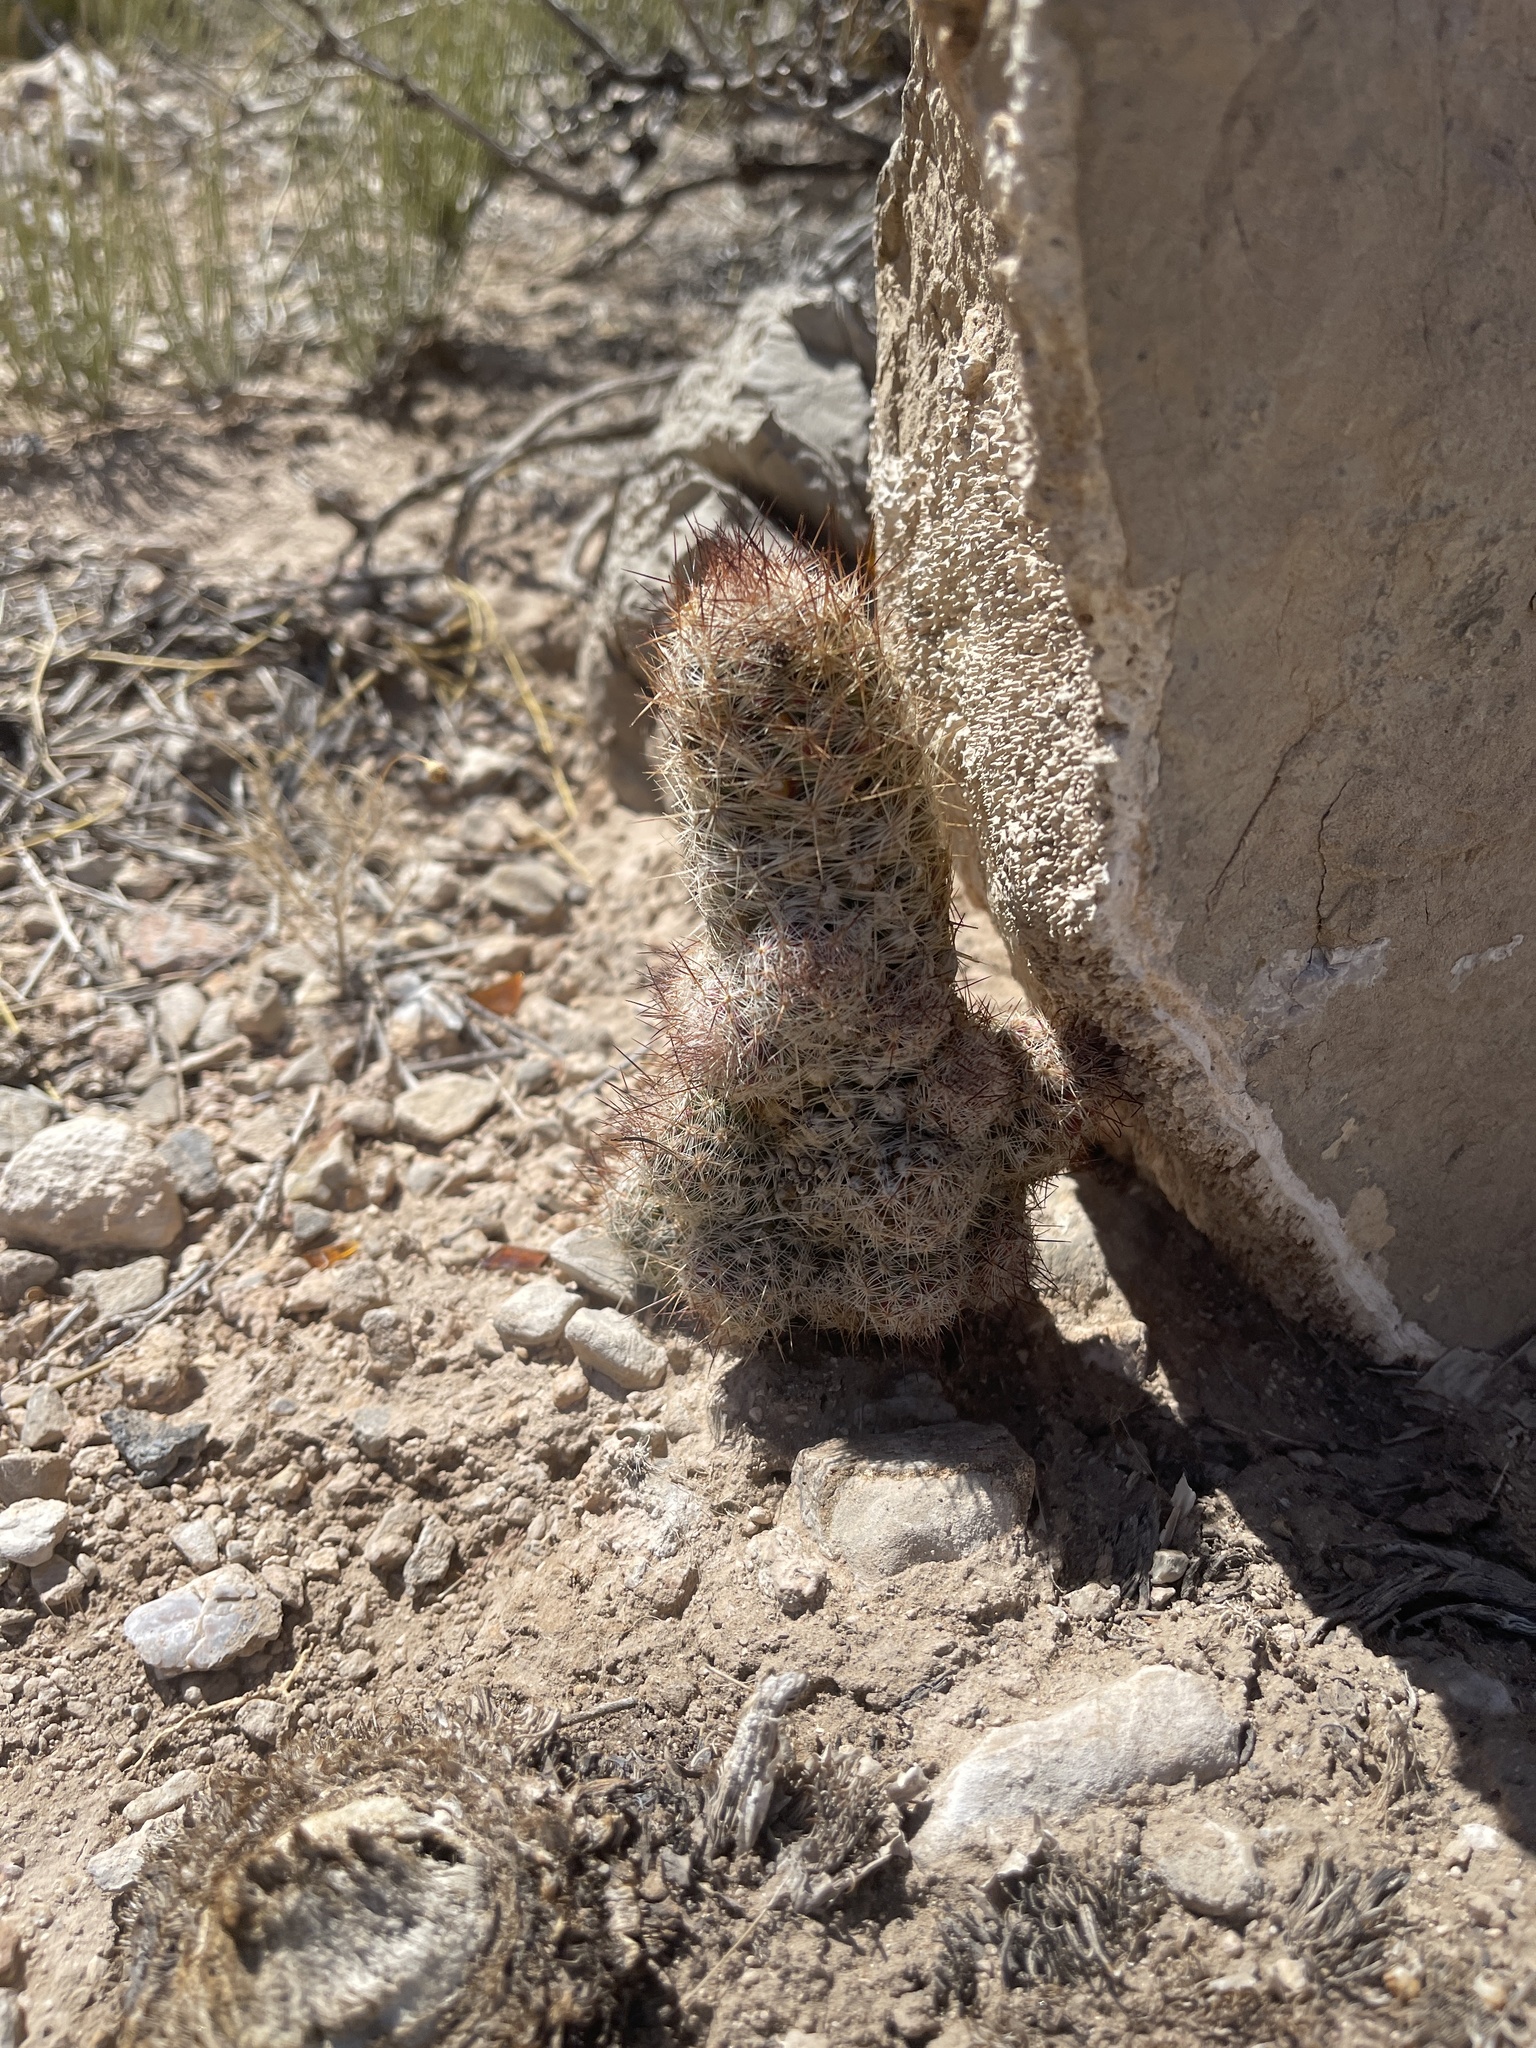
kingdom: Plantae
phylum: Tracheophyta
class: Magnoliopsida
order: Caryophyllales
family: Cactaceae
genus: Pelecyphora
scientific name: Pelecyphora tuberculosa
